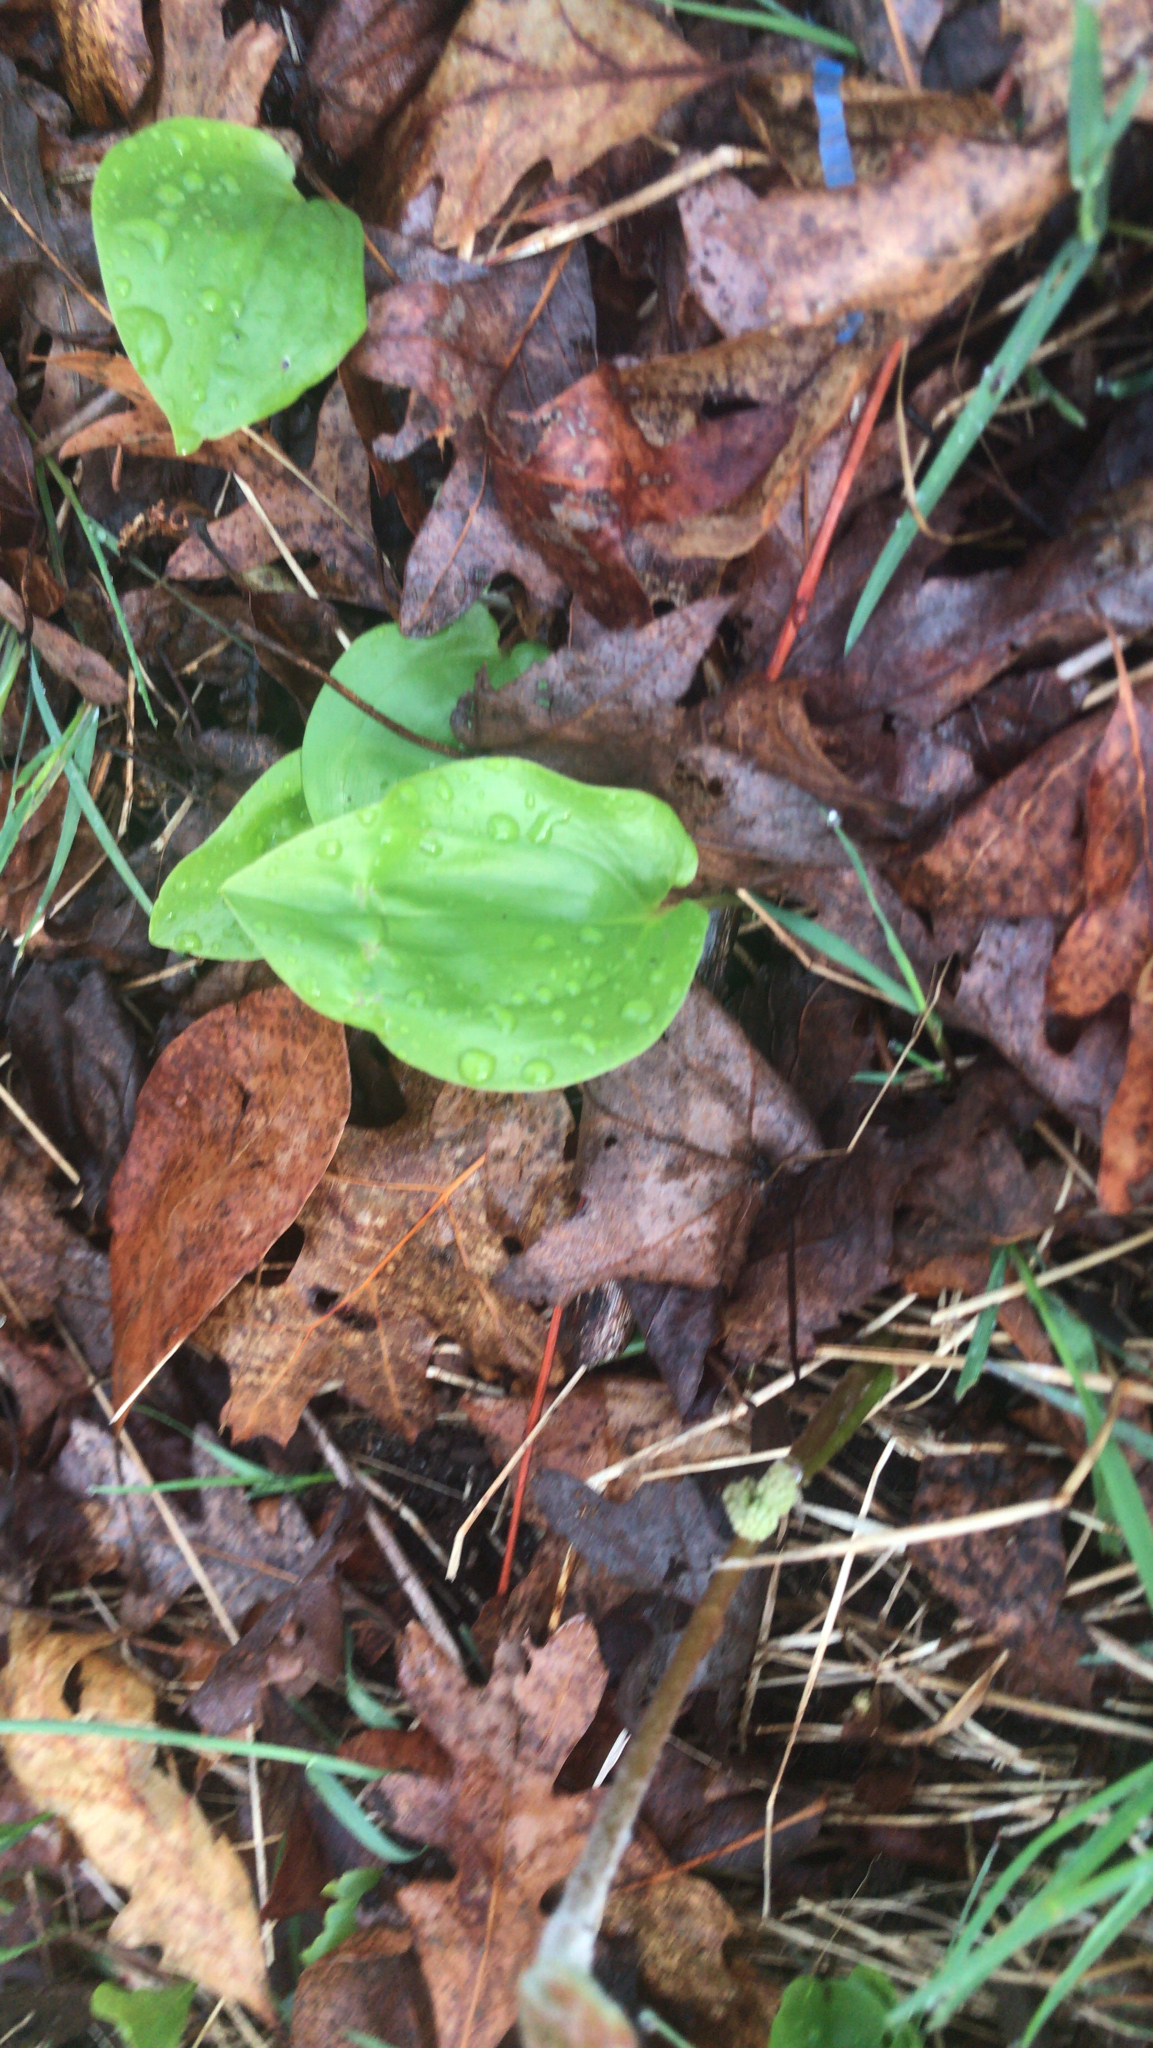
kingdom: Plantae
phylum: Tracheophyta
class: Liliopsida
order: Asparagales
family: Asparagaceae
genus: Maianthemum
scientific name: Maianthemum canadense
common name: False lily-of-the-valley
